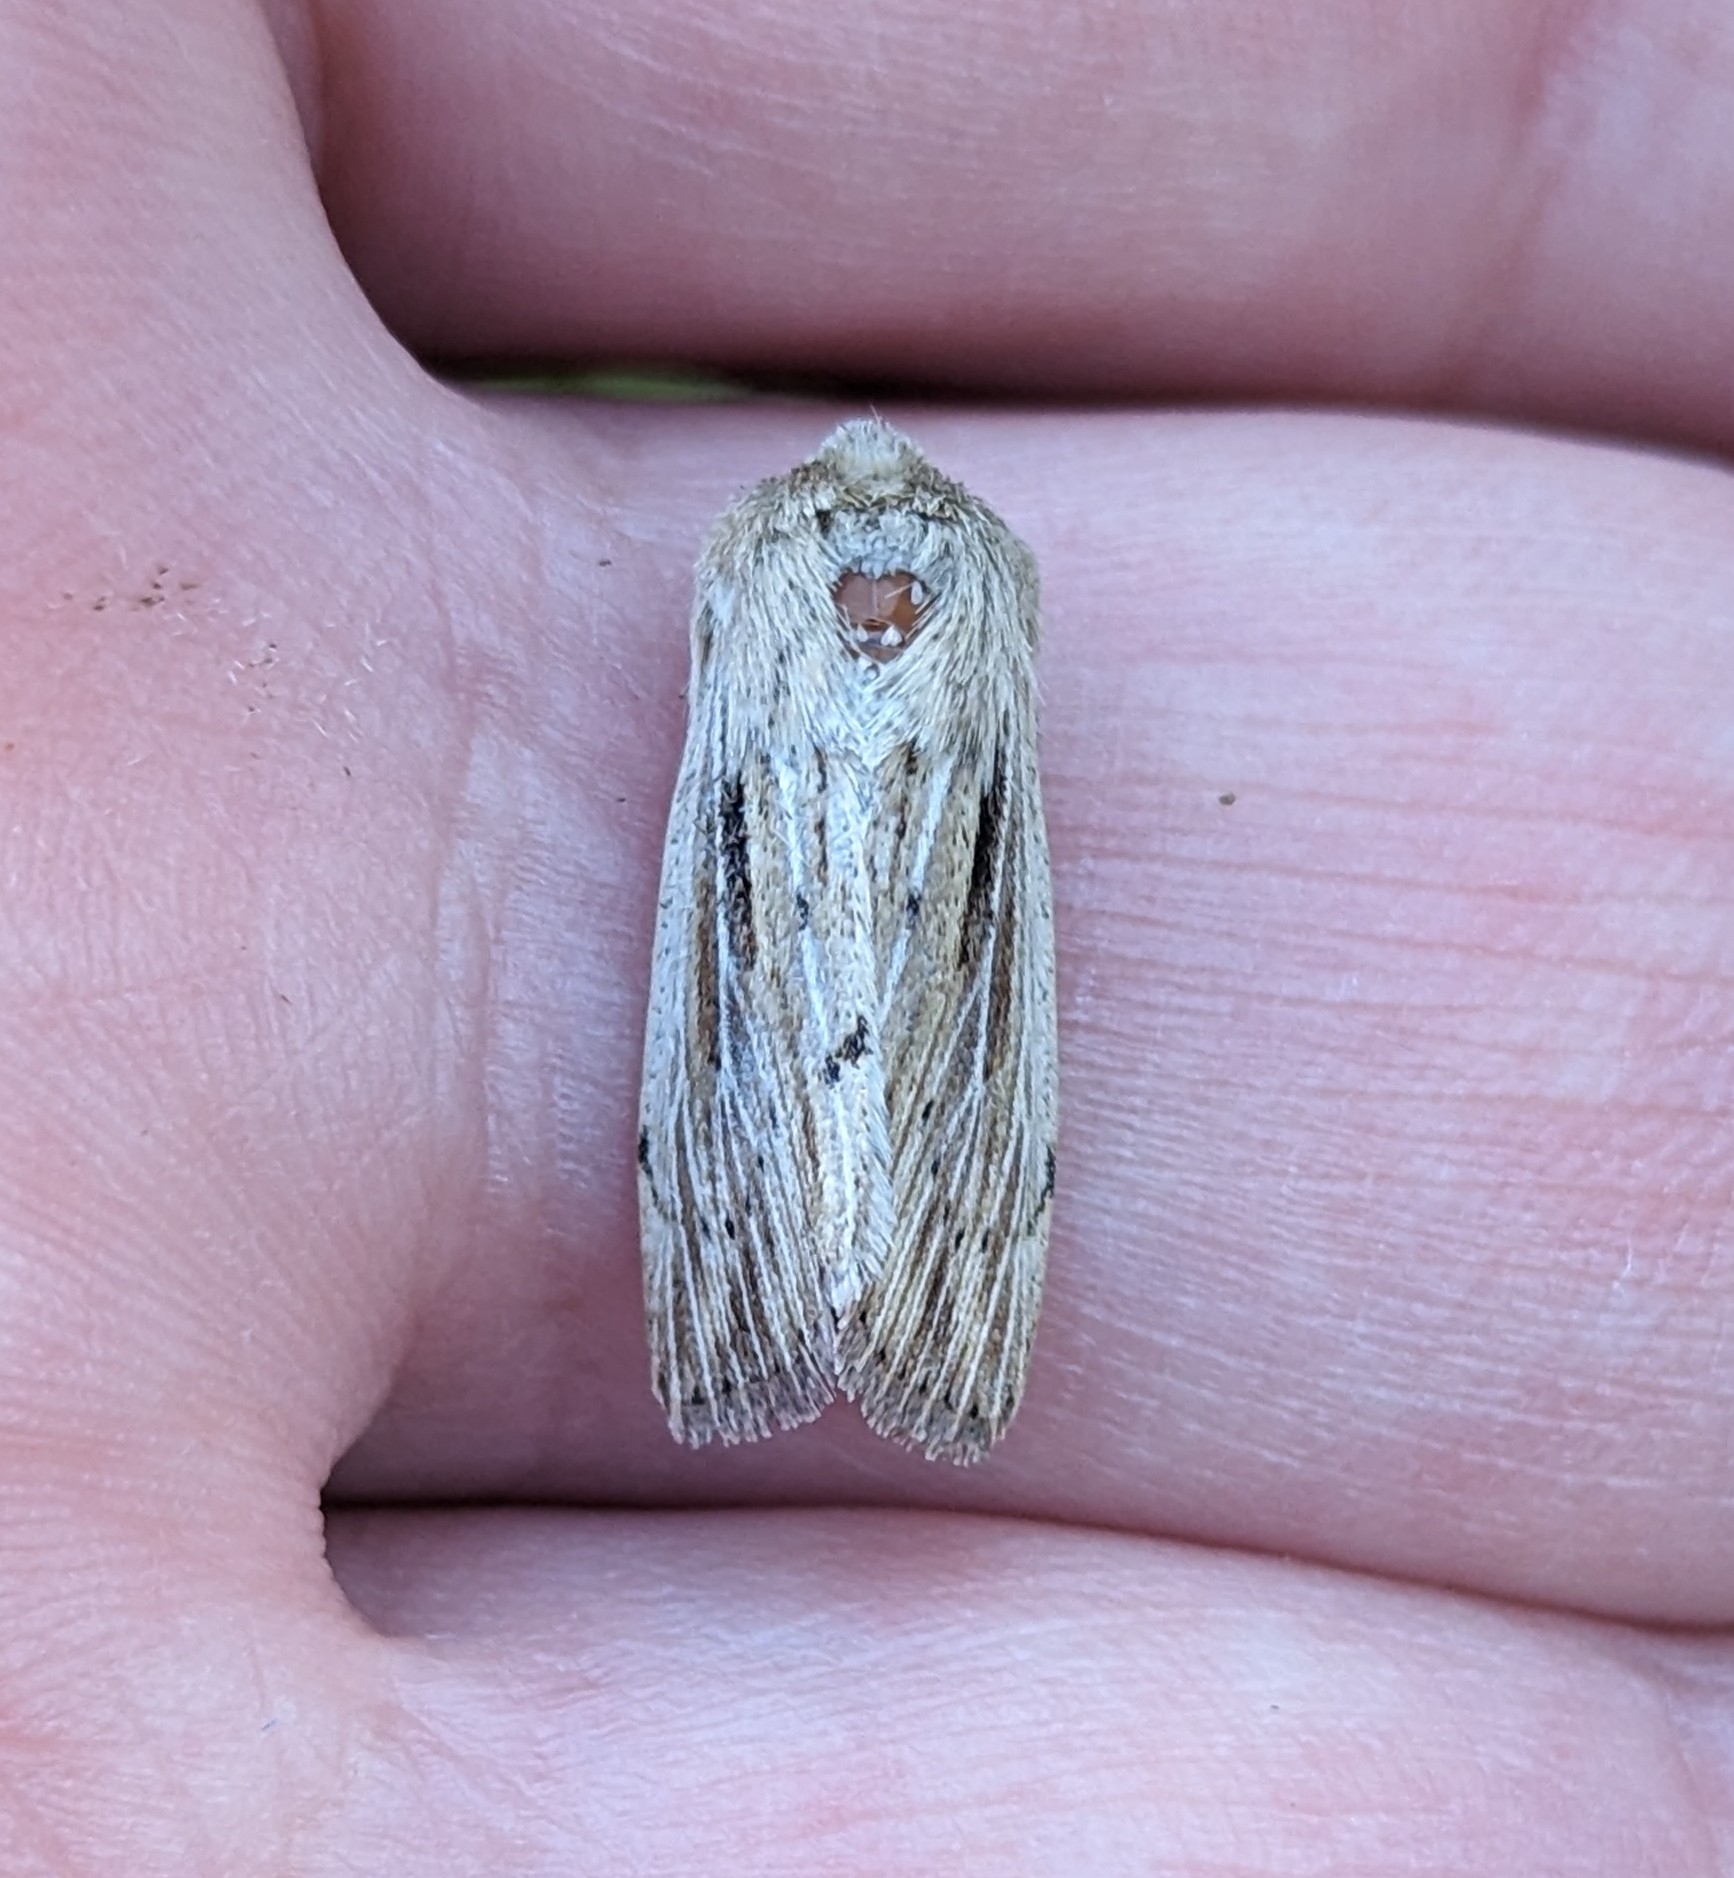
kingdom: Animalia
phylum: Arthropoda
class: Insecta
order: Lepidoptera
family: Noctuidae
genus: Leucania
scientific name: Leucania insueta
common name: Heterodox wainscot moth
